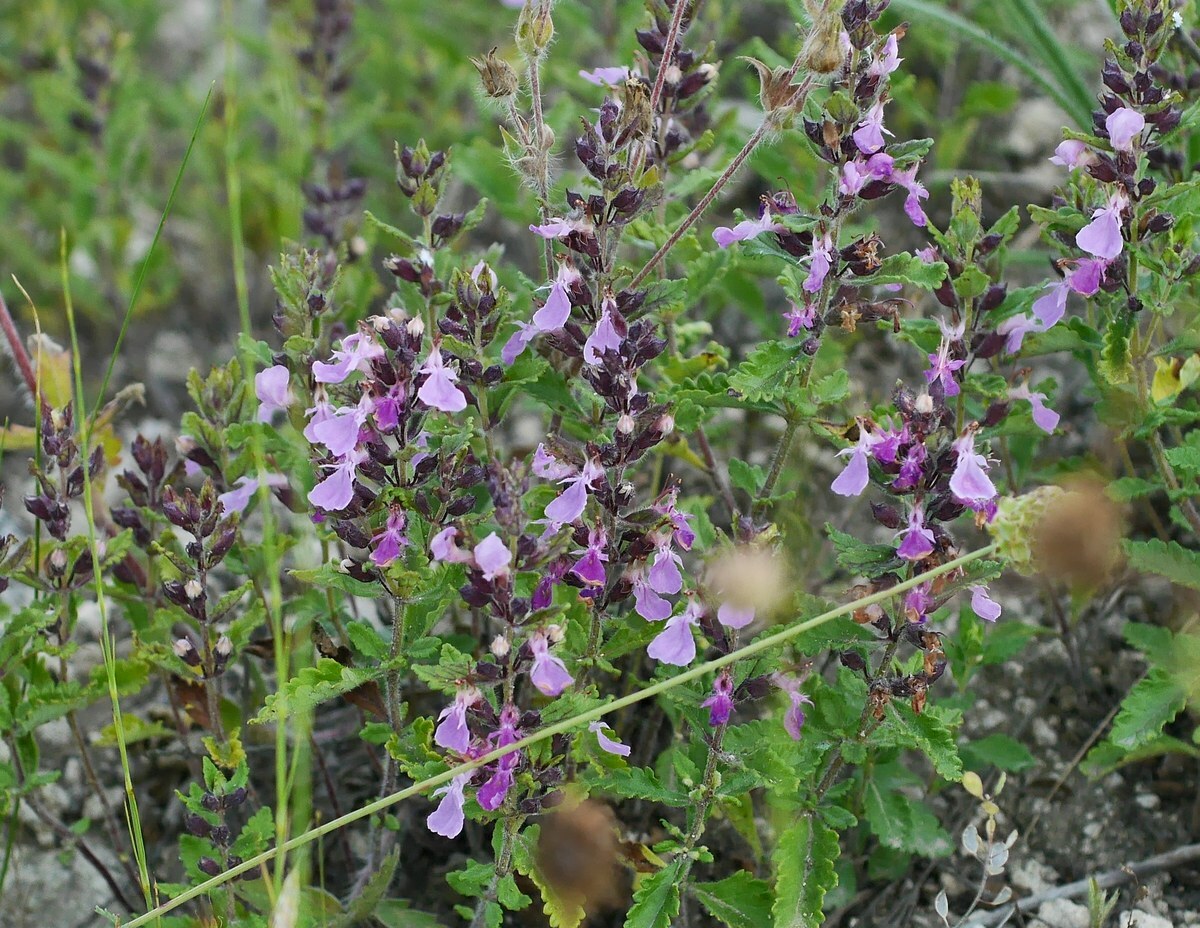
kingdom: Plantae
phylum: Tracheophyta
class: Magnoliopsida
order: Lamiales
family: Lamiaceae
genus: Teucrium
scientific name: Teucrium chamaedrys
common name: Wall germander
